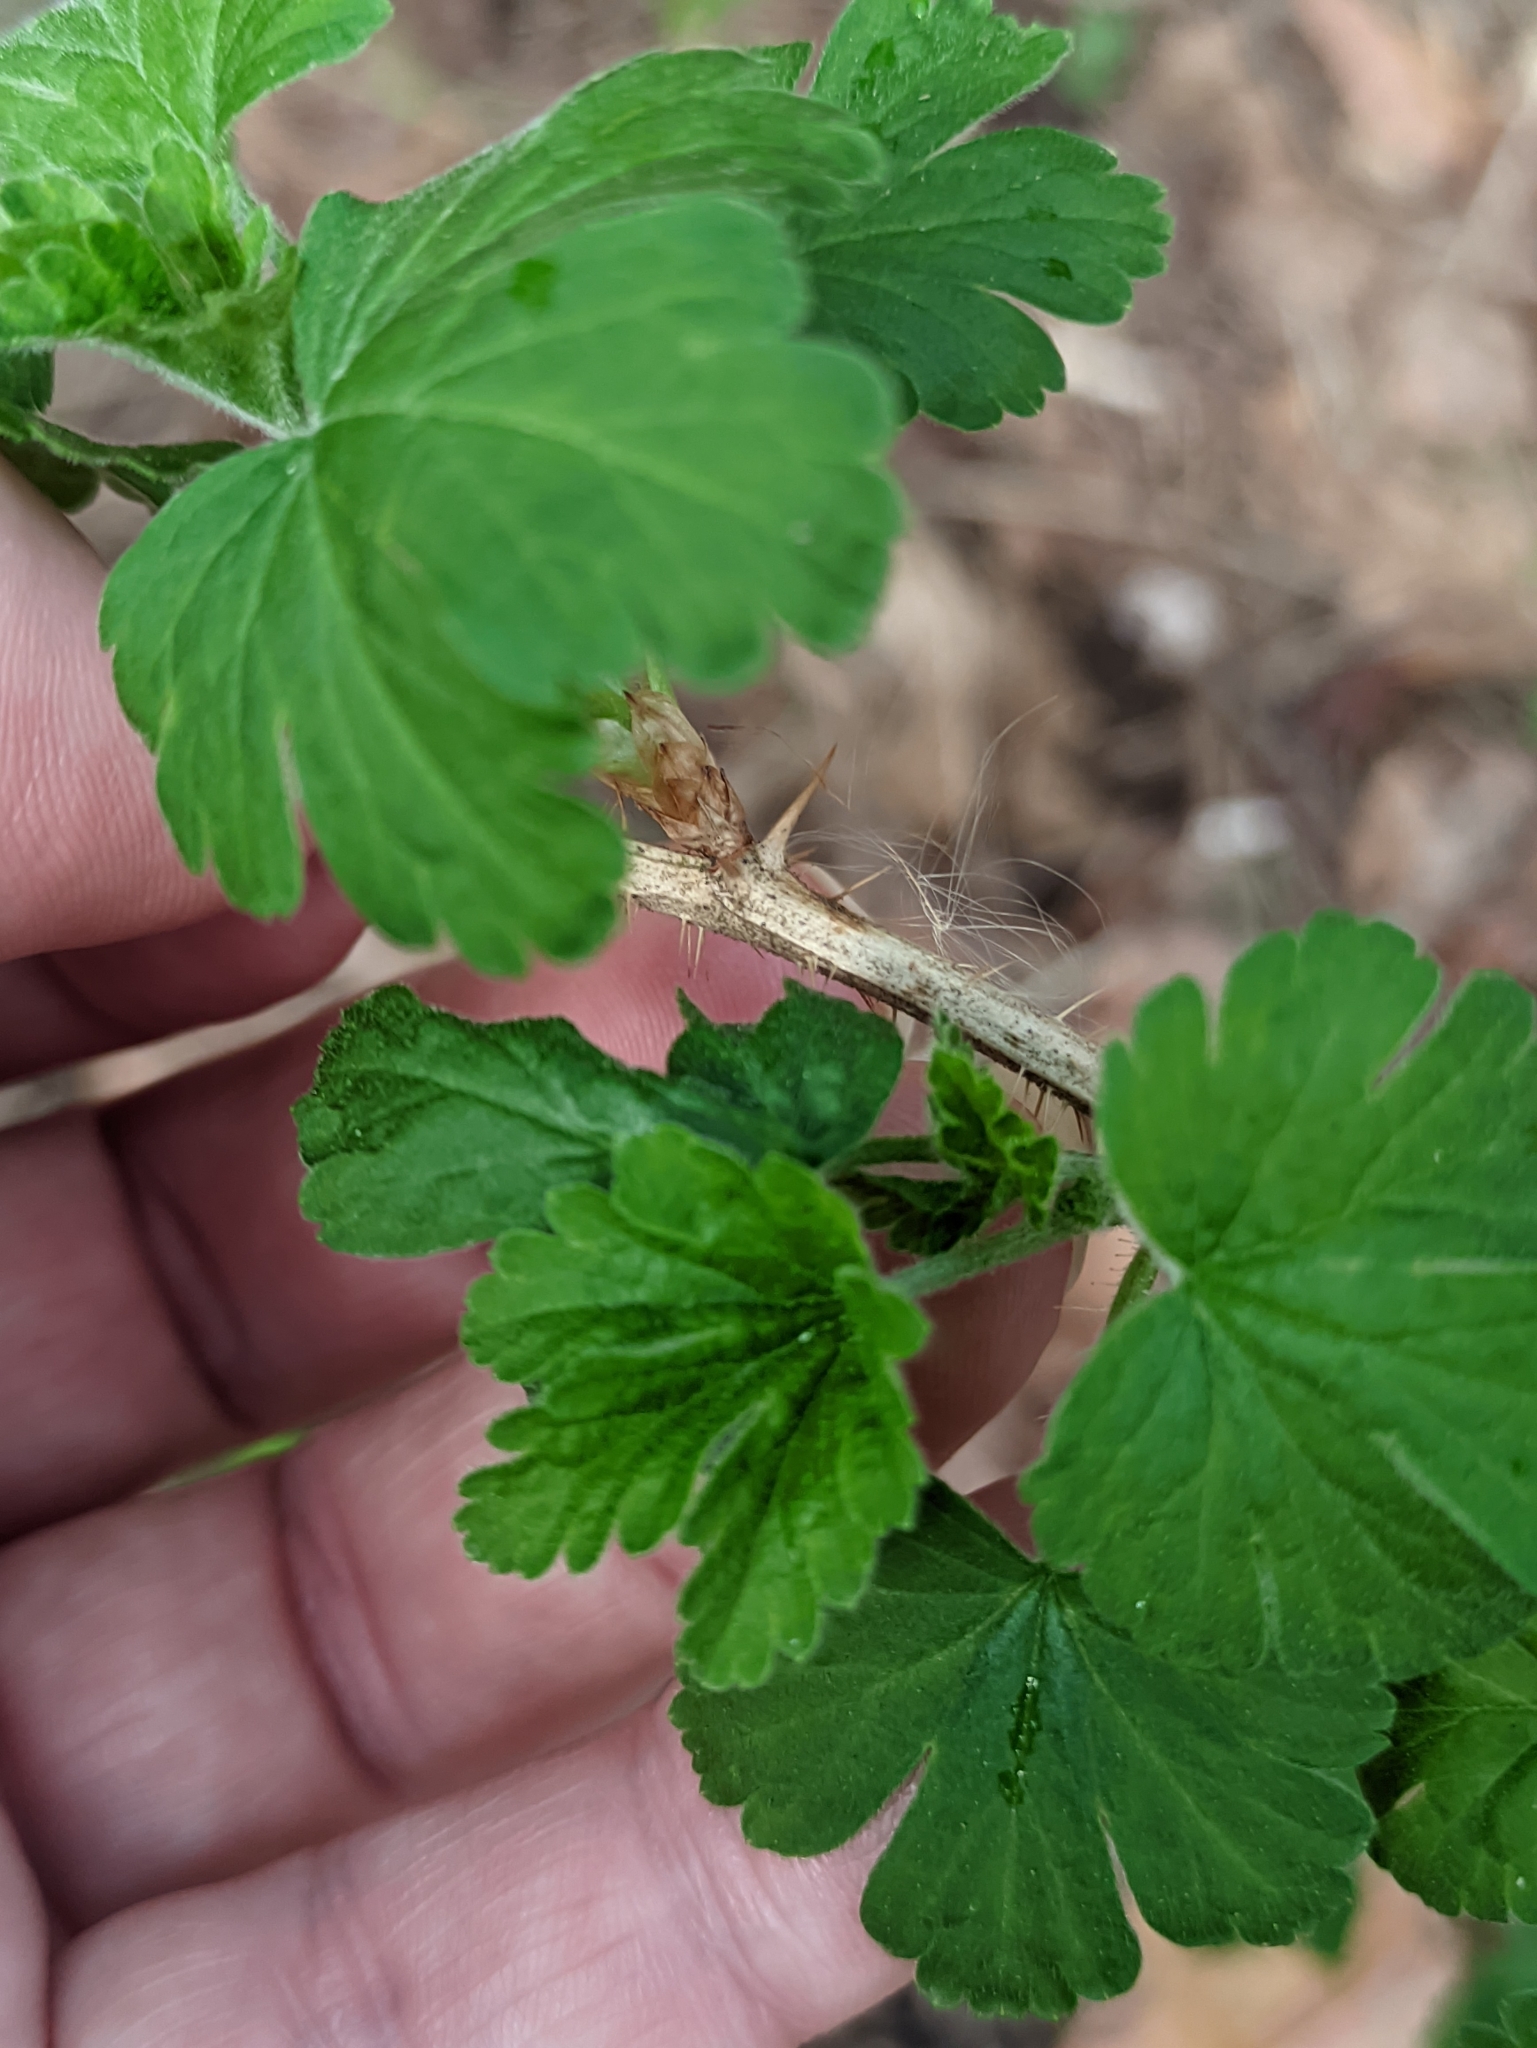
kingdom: Plantae
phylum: Tracheophyta
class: Magnoliopsida
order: Saxifragales
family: Grossulariaceae
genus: Ribes
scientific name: Ribes uva-crispa
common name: Gooseberry
